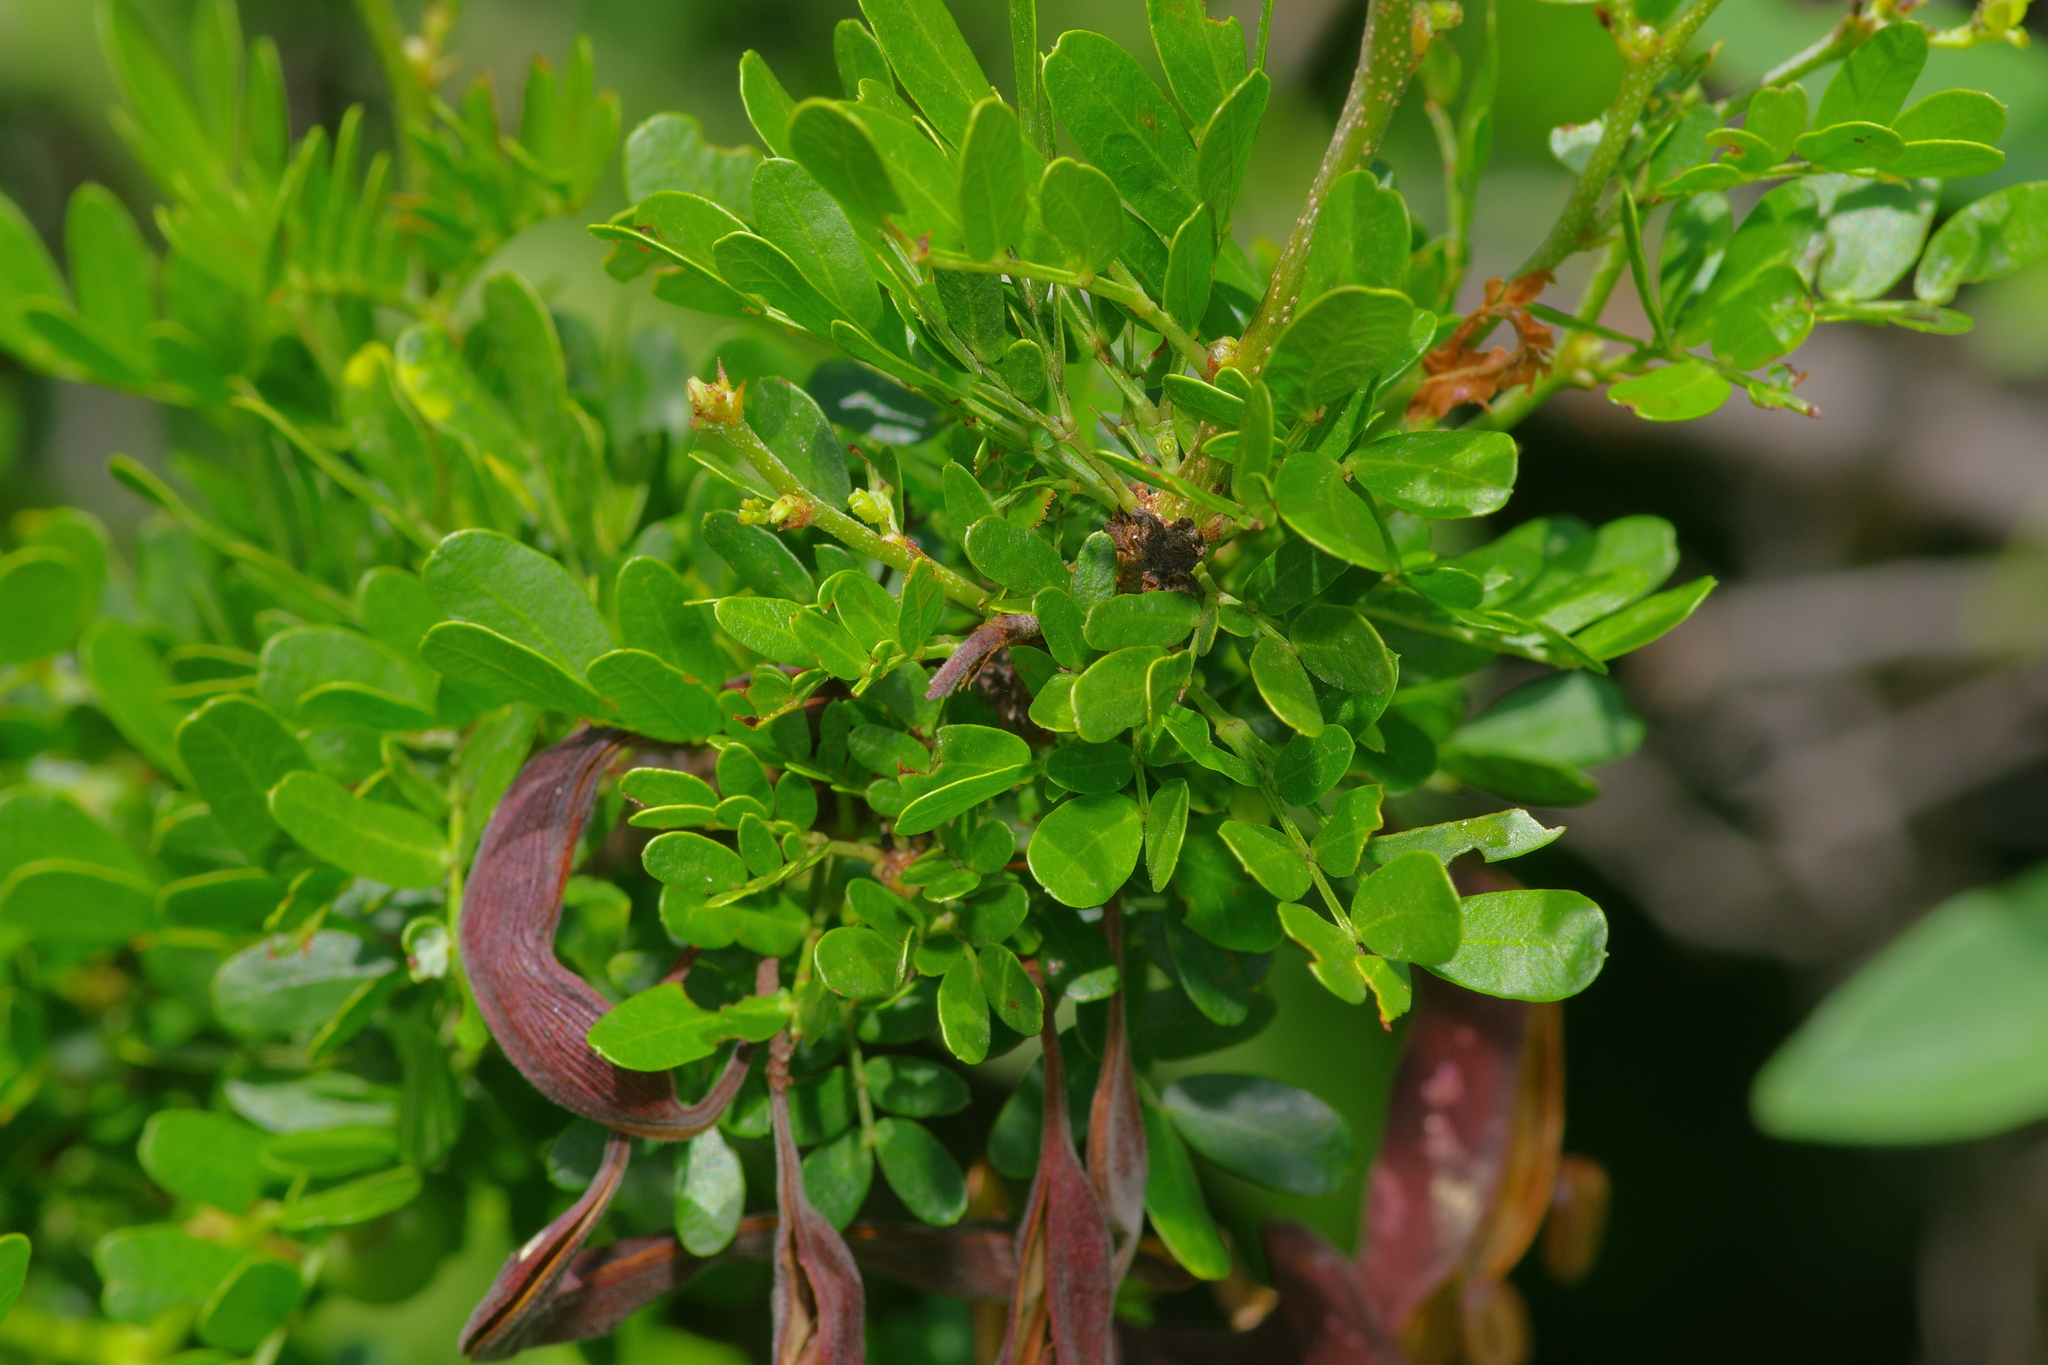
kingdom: Plantae
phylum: Tracheophyta
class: Magnoliopsida
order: Fabales
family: Fabaceae
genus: Vachellia
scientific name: Vachellia rigidula
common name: Blackbrush
